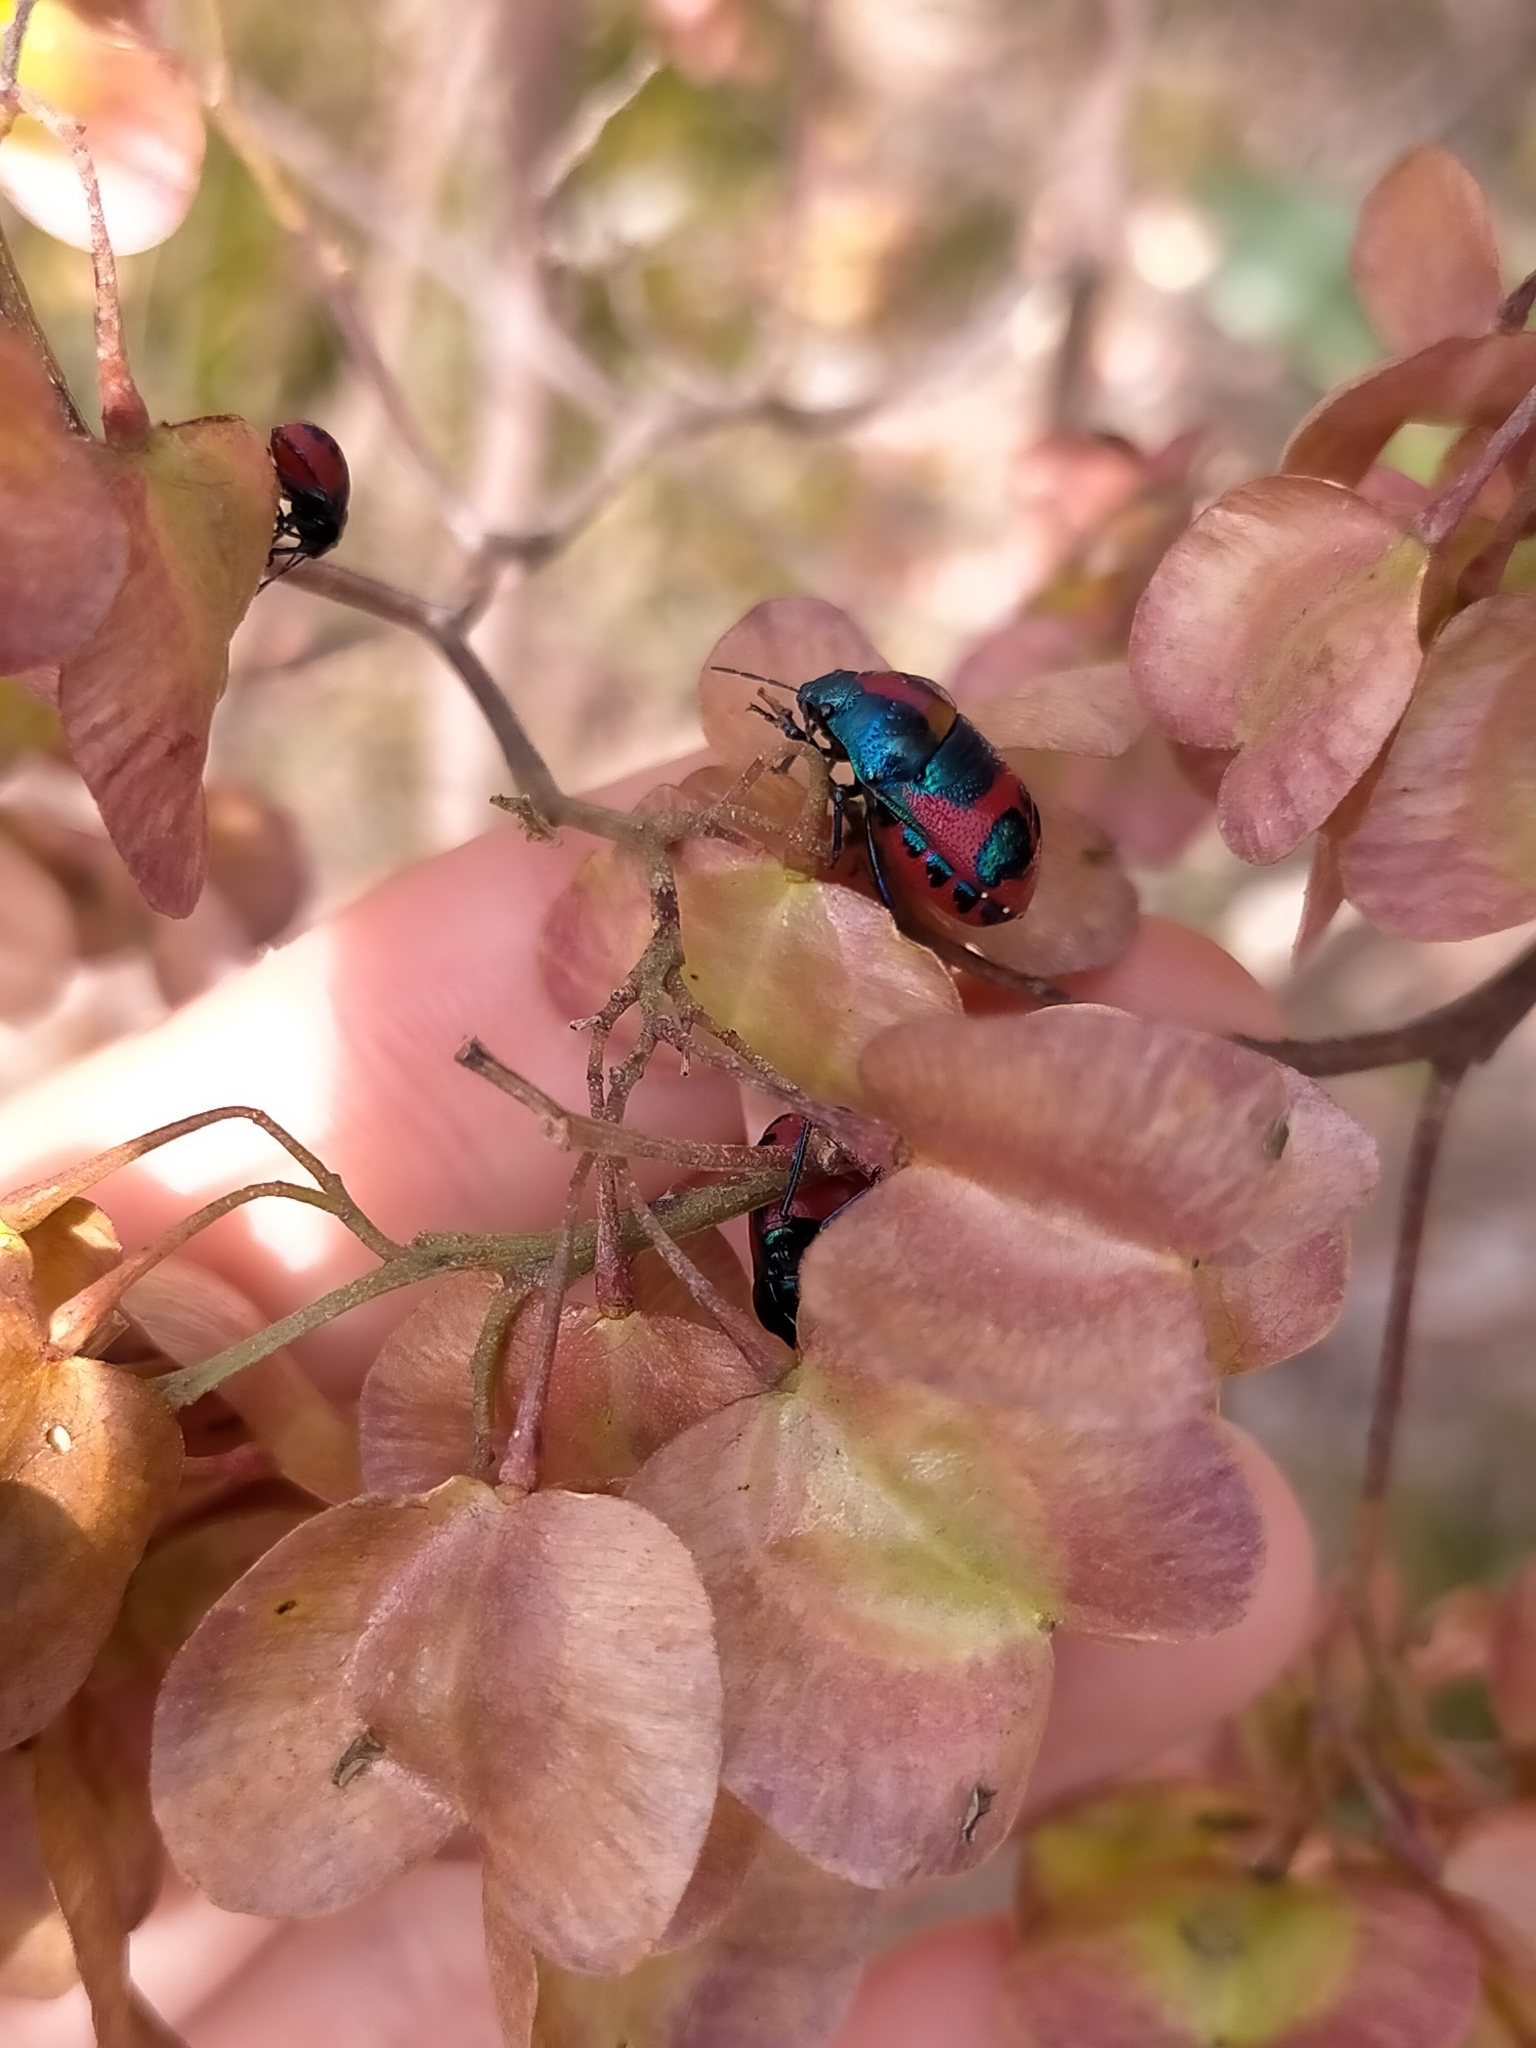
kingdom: Animalia
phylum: Arthropoda
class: Insecta
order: Hemiptera
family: Scutelleridae
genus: Choerocoris
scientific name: Choerocoris paganus
